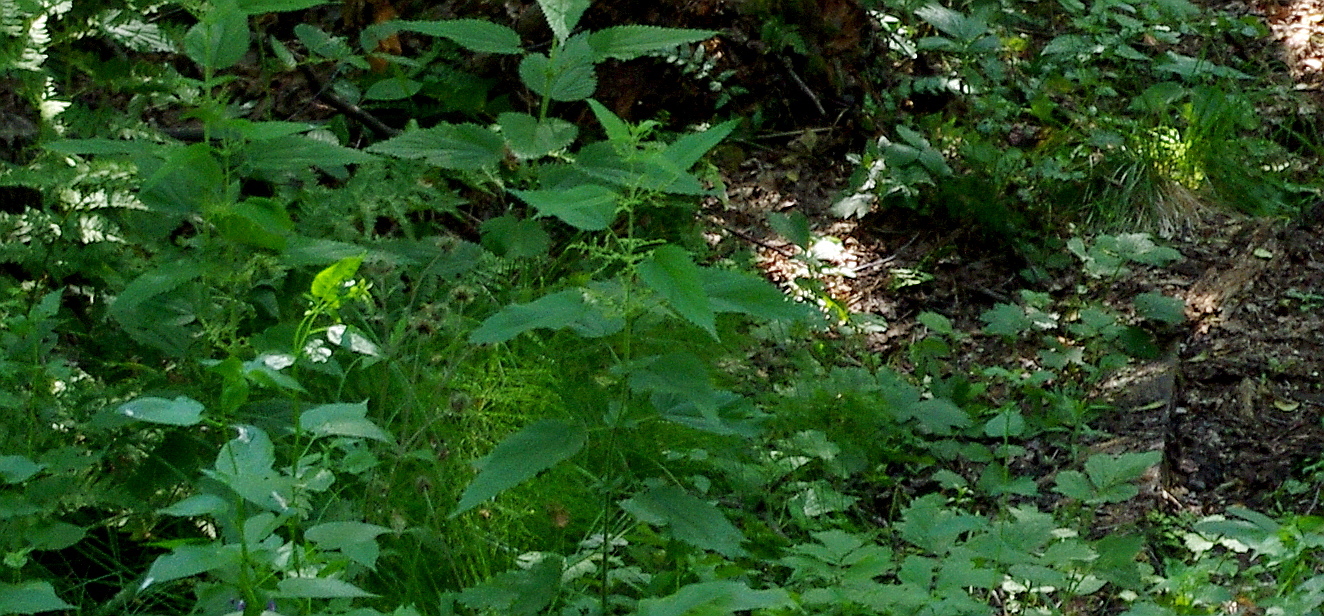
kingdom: Plantae
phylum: Tracheophyta
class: Magnoliopsida
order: Rosales
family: Urticaceae
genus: Urtica
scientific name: Urtica dioica
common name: Common nettle
